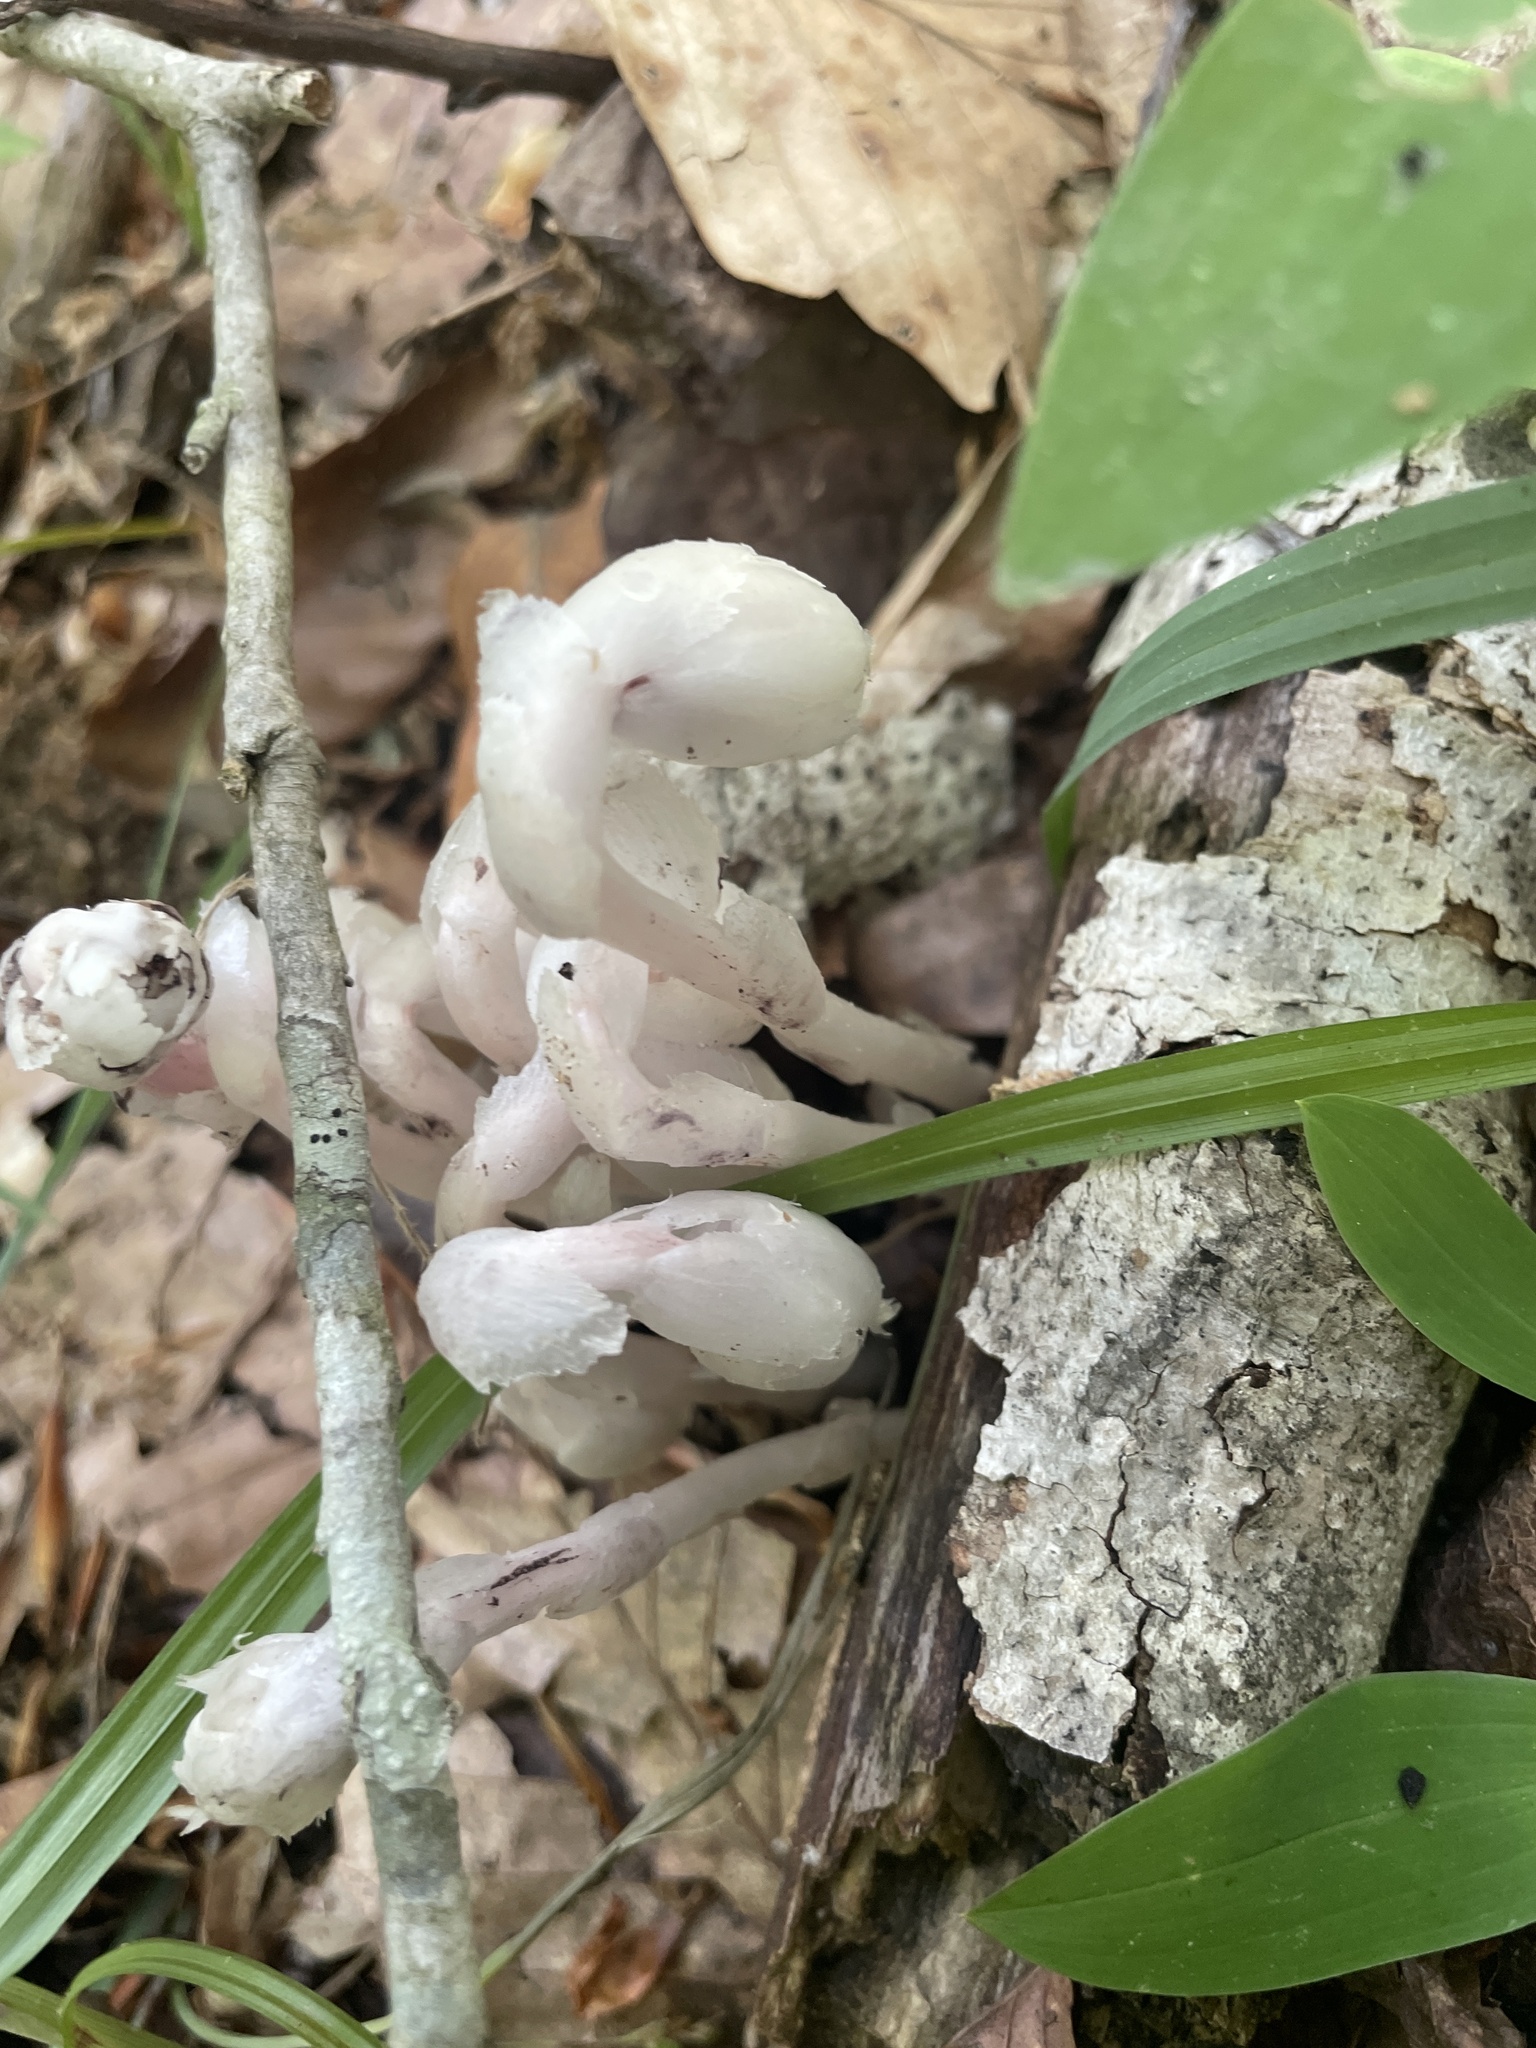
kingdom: Plantae
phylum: Tracheophyta
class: Magnoliopsida
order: Ericales
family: Ericaceae
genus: Monotropa
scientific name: Monotropa uniflora
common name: Convulsion root
